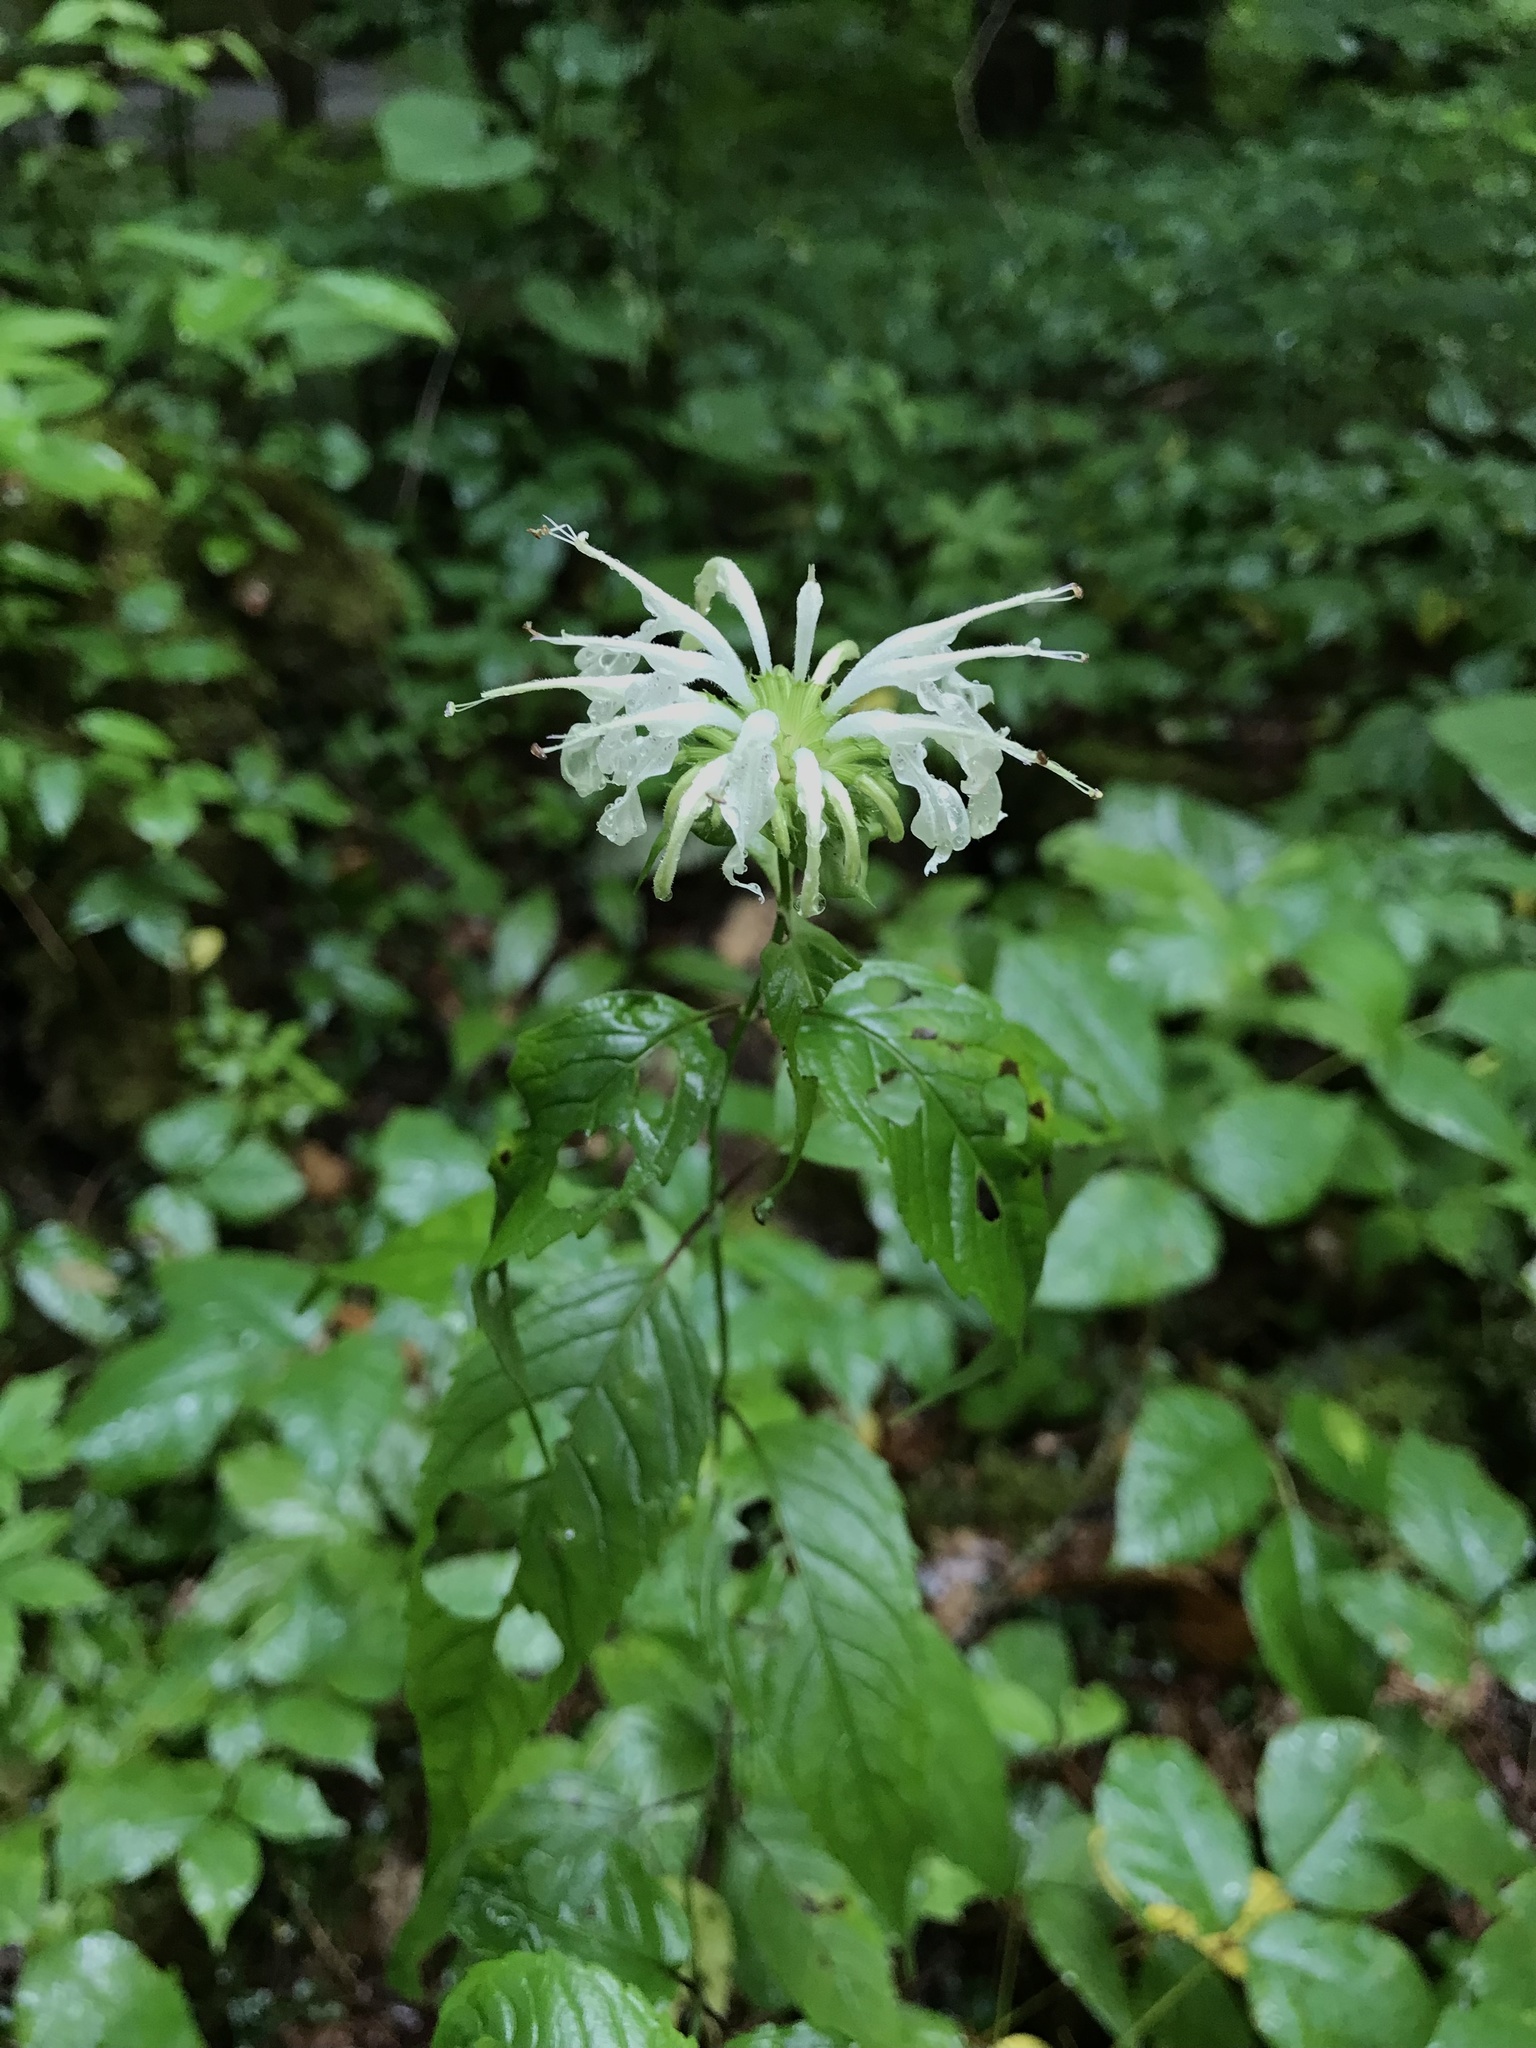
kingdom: Plantae
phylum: Tracheophyta
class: Magnoliopsida
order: Lamiales
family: Lamiaceae
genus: Monarda
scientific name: Monarda clinopodia
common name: Basil beebalm
